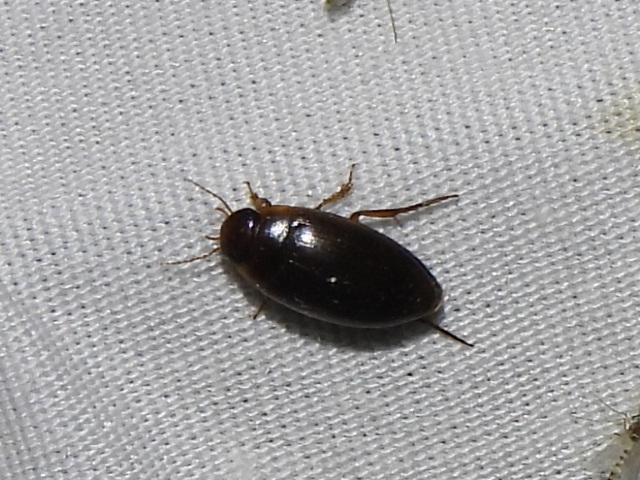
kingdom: Animalia
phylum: Arthropoda
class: Insecta
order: Coleoptera
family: Dytiscidae
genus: Copelatus
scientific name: Copelatus chevrolati
